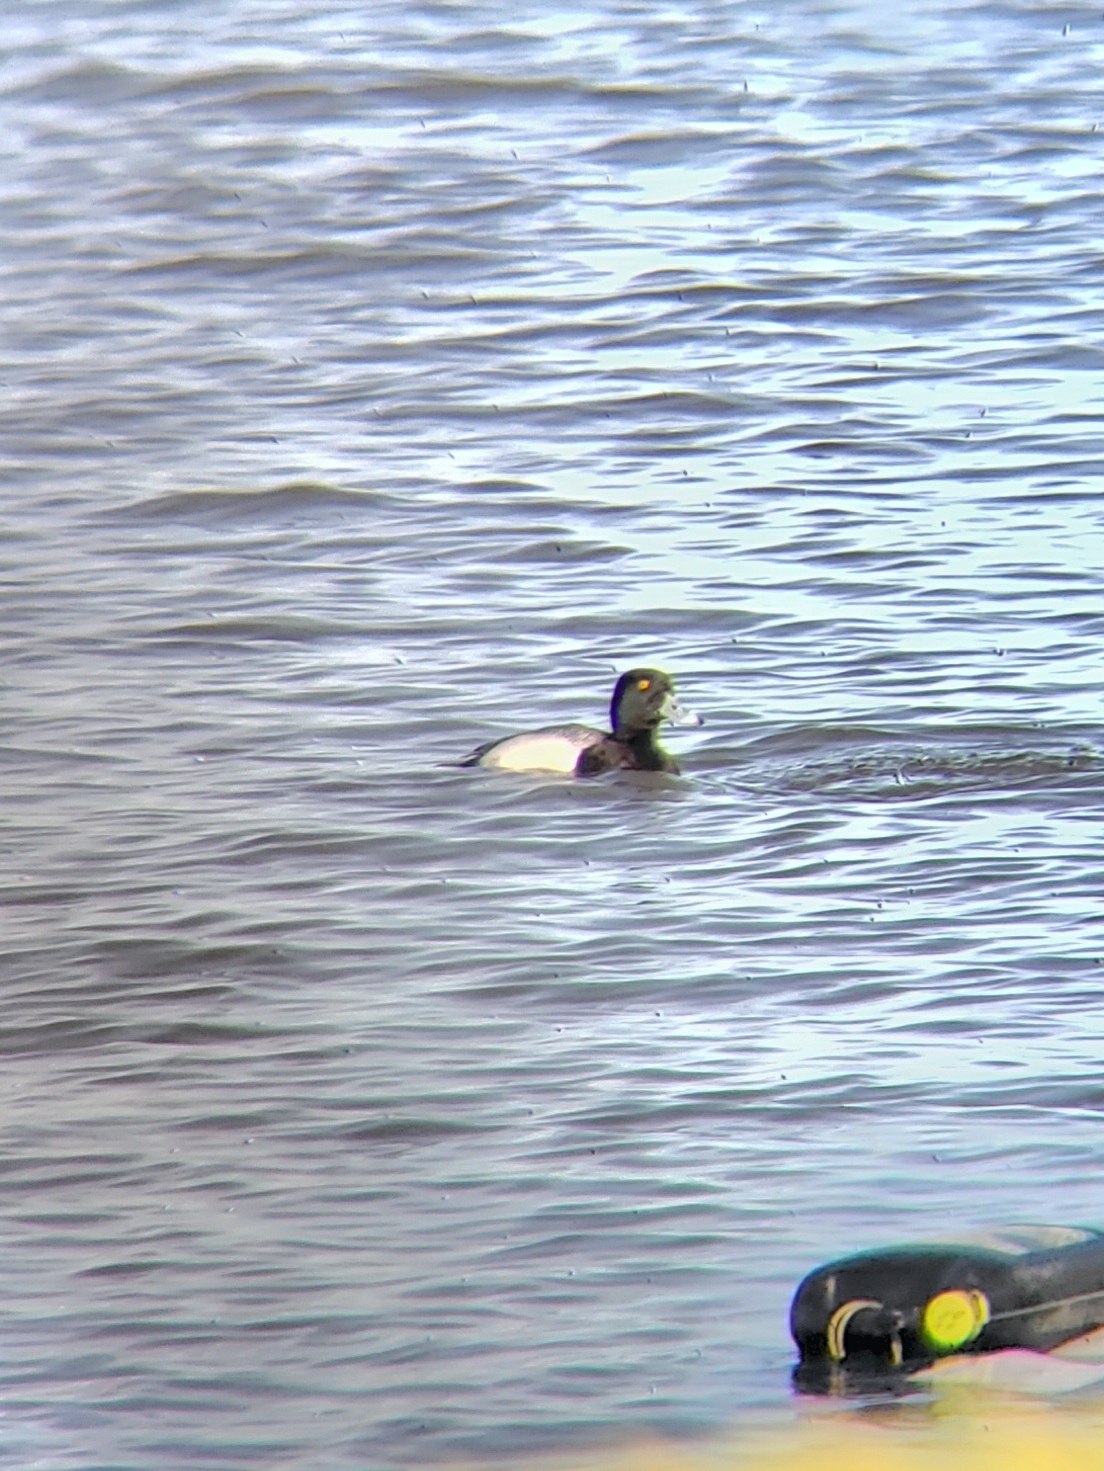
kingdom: Animalia
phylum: Chordata
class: Aves
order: Anseriformes
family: Anatidae
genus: Aythya
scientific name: Aythya marila
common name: Greater scaup
